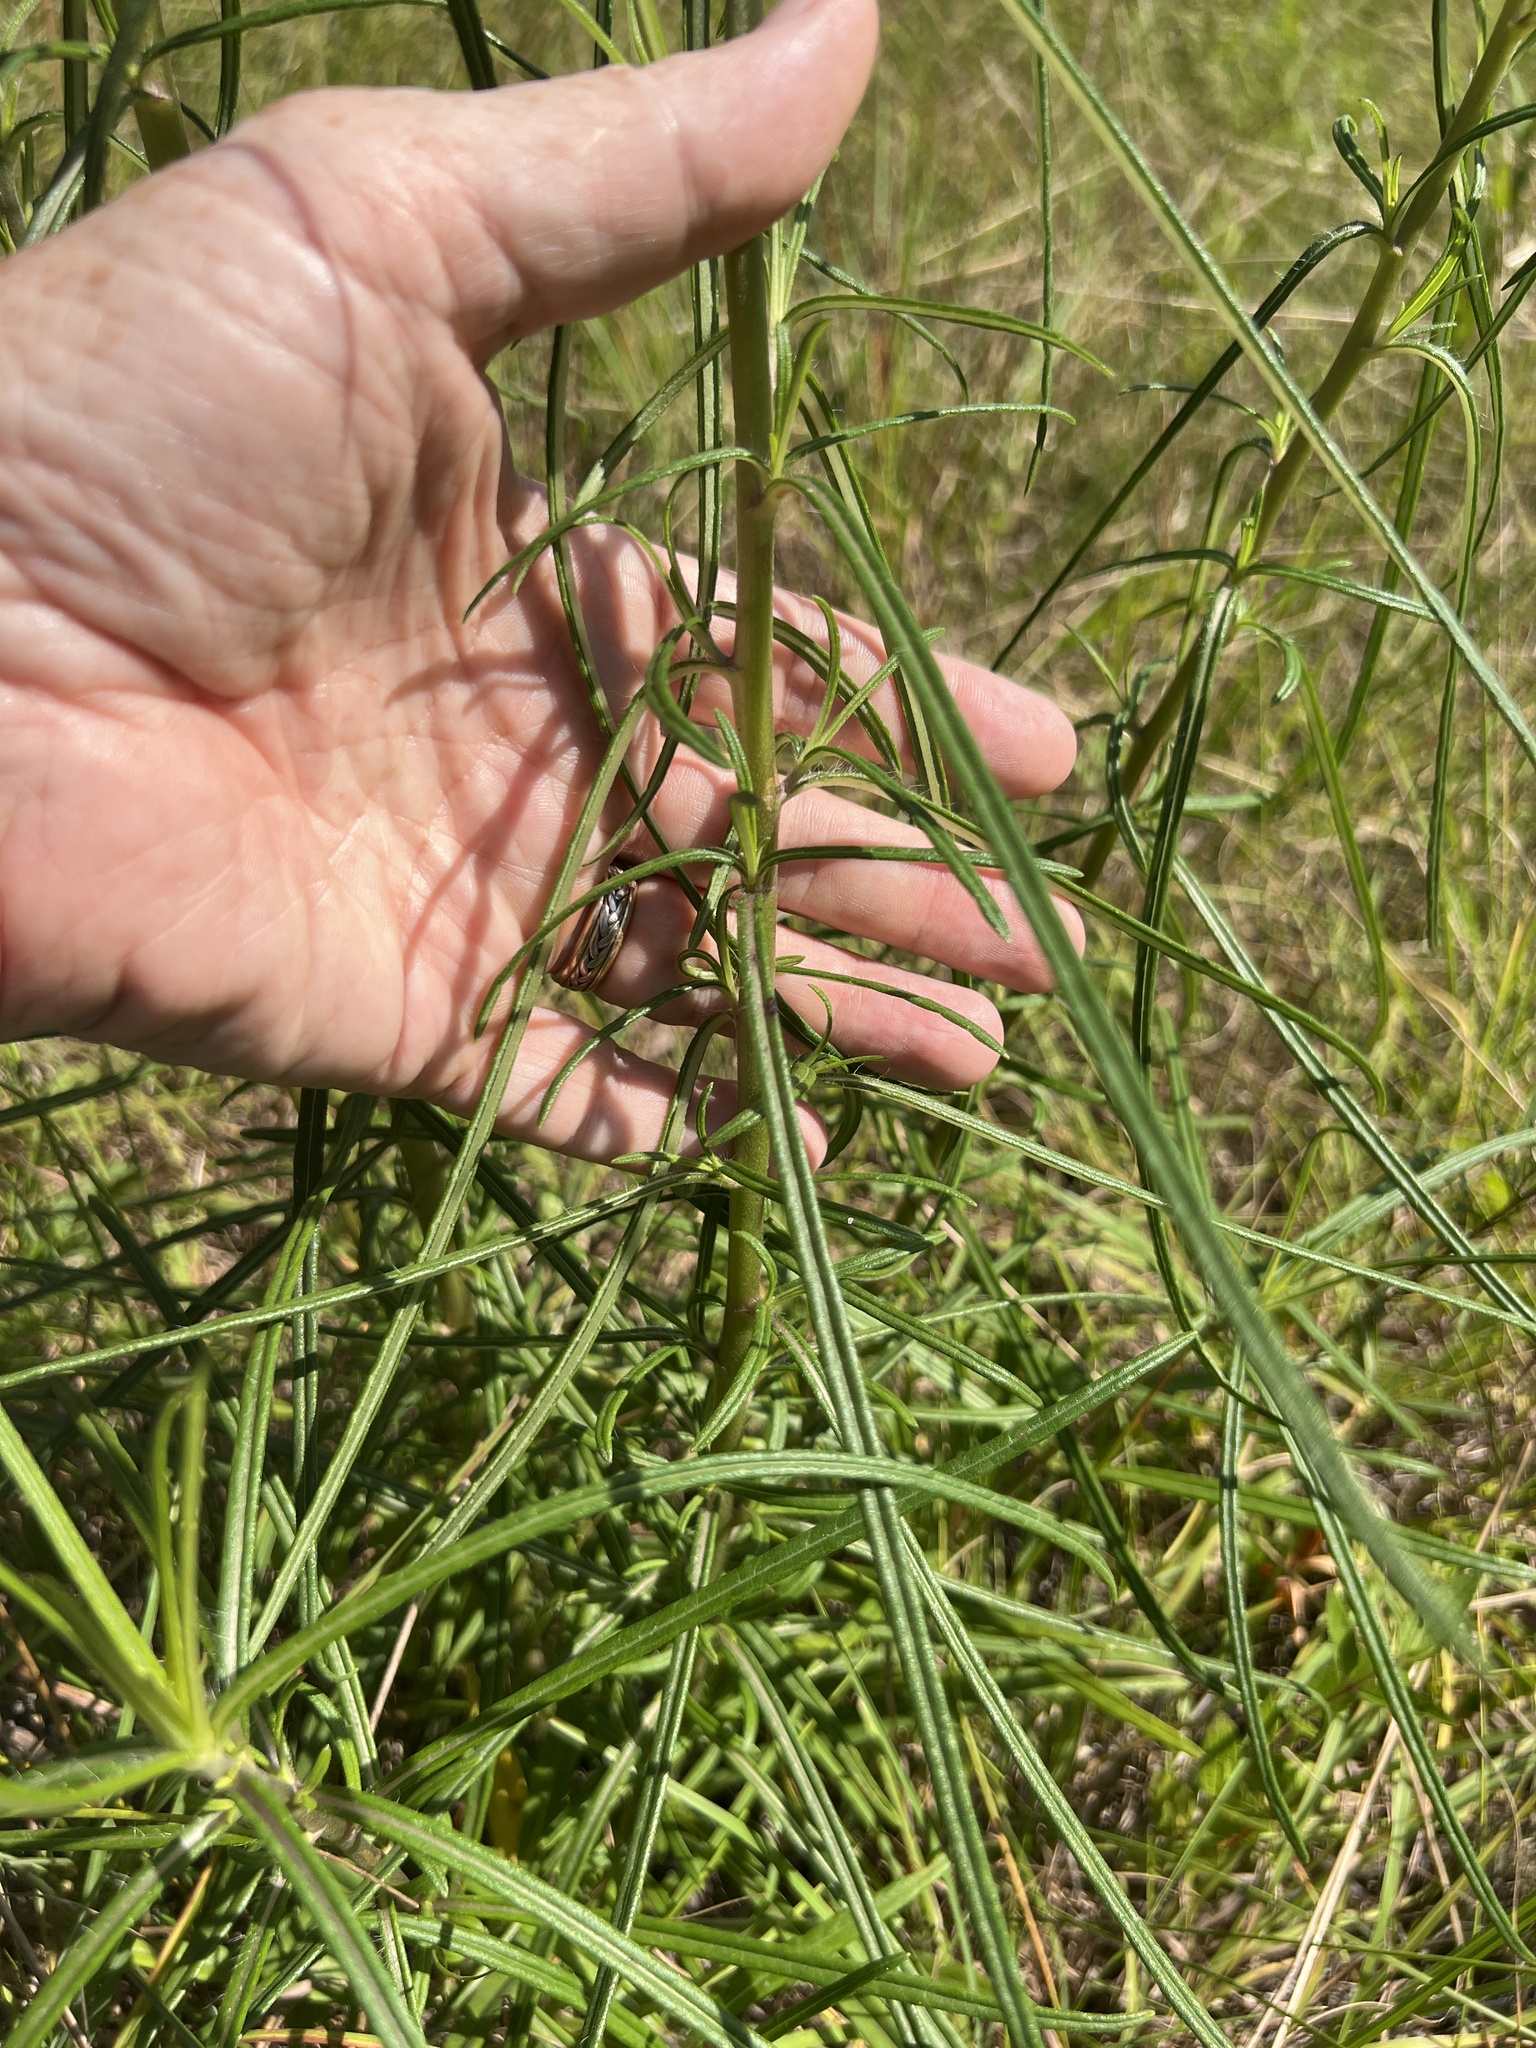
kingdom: Plantae
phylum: Tracheophyta
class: Magnoliopsida
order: Asterales
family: Asteraceae
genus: Helianthus
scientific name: Helianthus angustifolius
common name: Swamp sunflower
